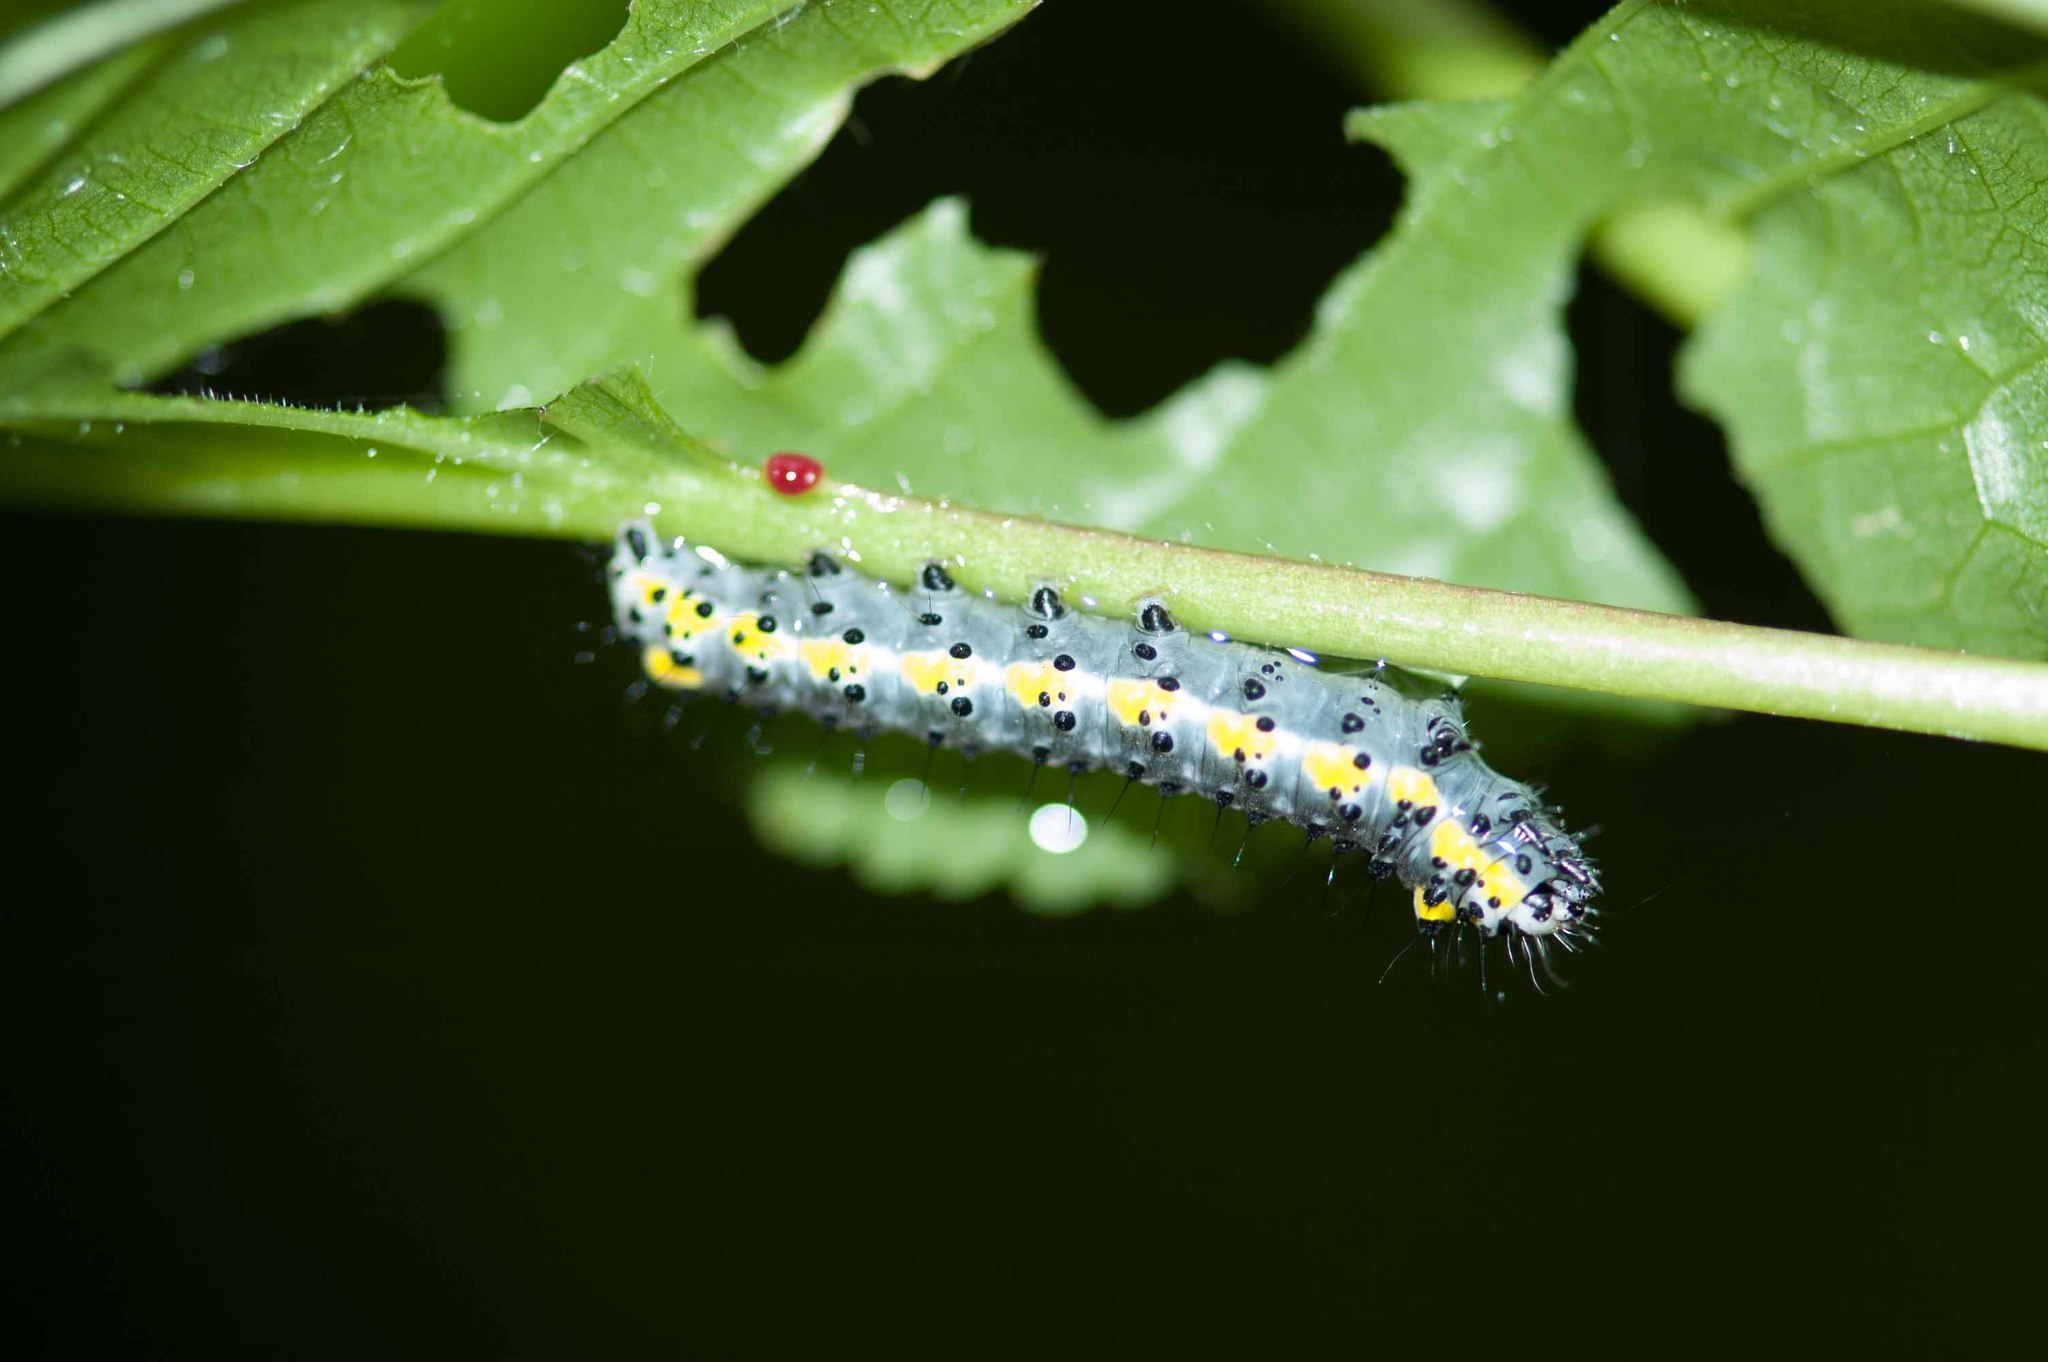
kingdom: Animalia
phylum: Arthropoda
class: Insecta
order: Lepidoptera
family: Noctuidae
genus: Diloba
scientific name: Diloba caeruleocephala
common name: Figure of eight
